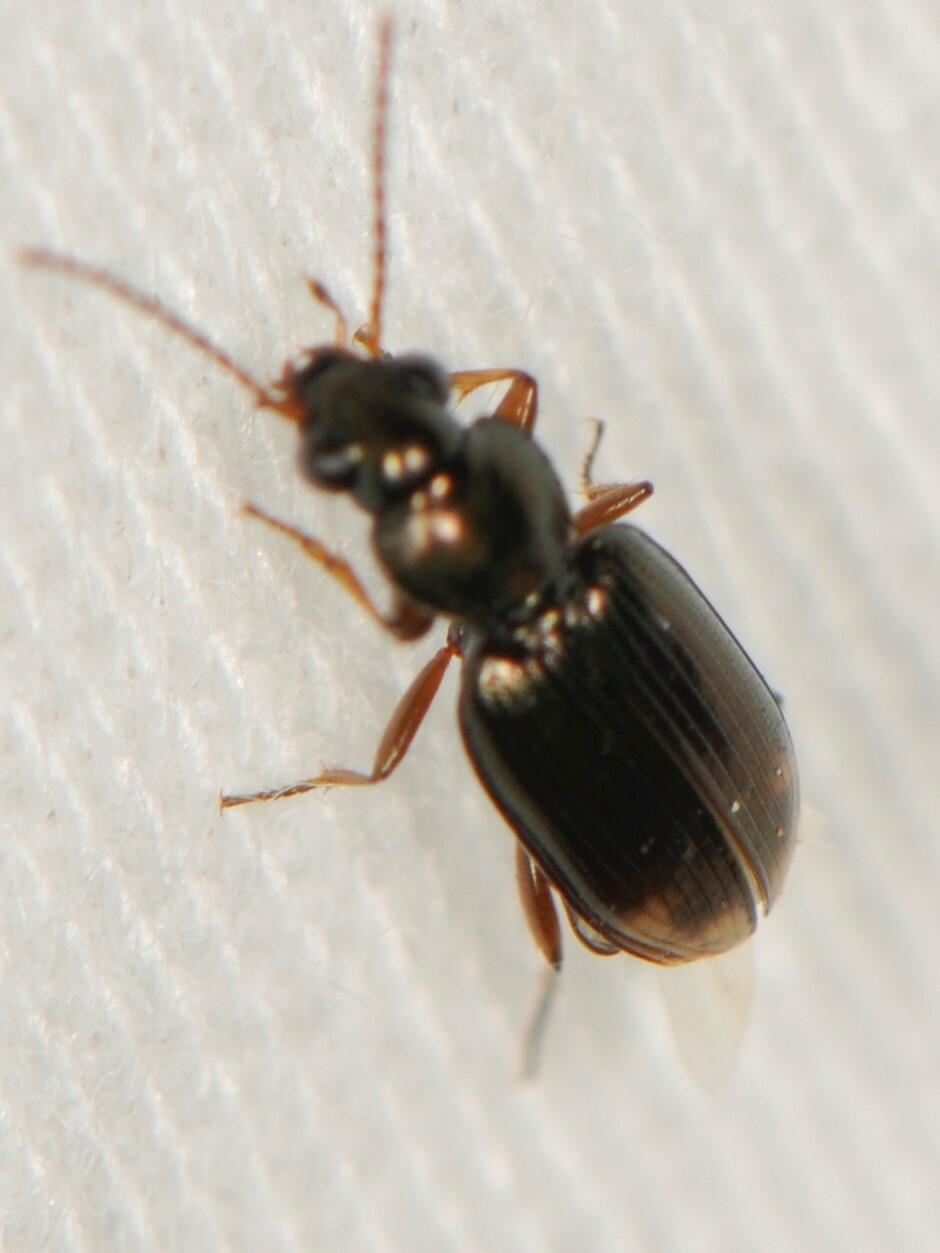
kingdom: Animalia
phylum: Arthropoda
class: Insecta
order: Coleoptera
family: Carabidae
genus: Bembidion
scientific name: Bembidion rapidum
